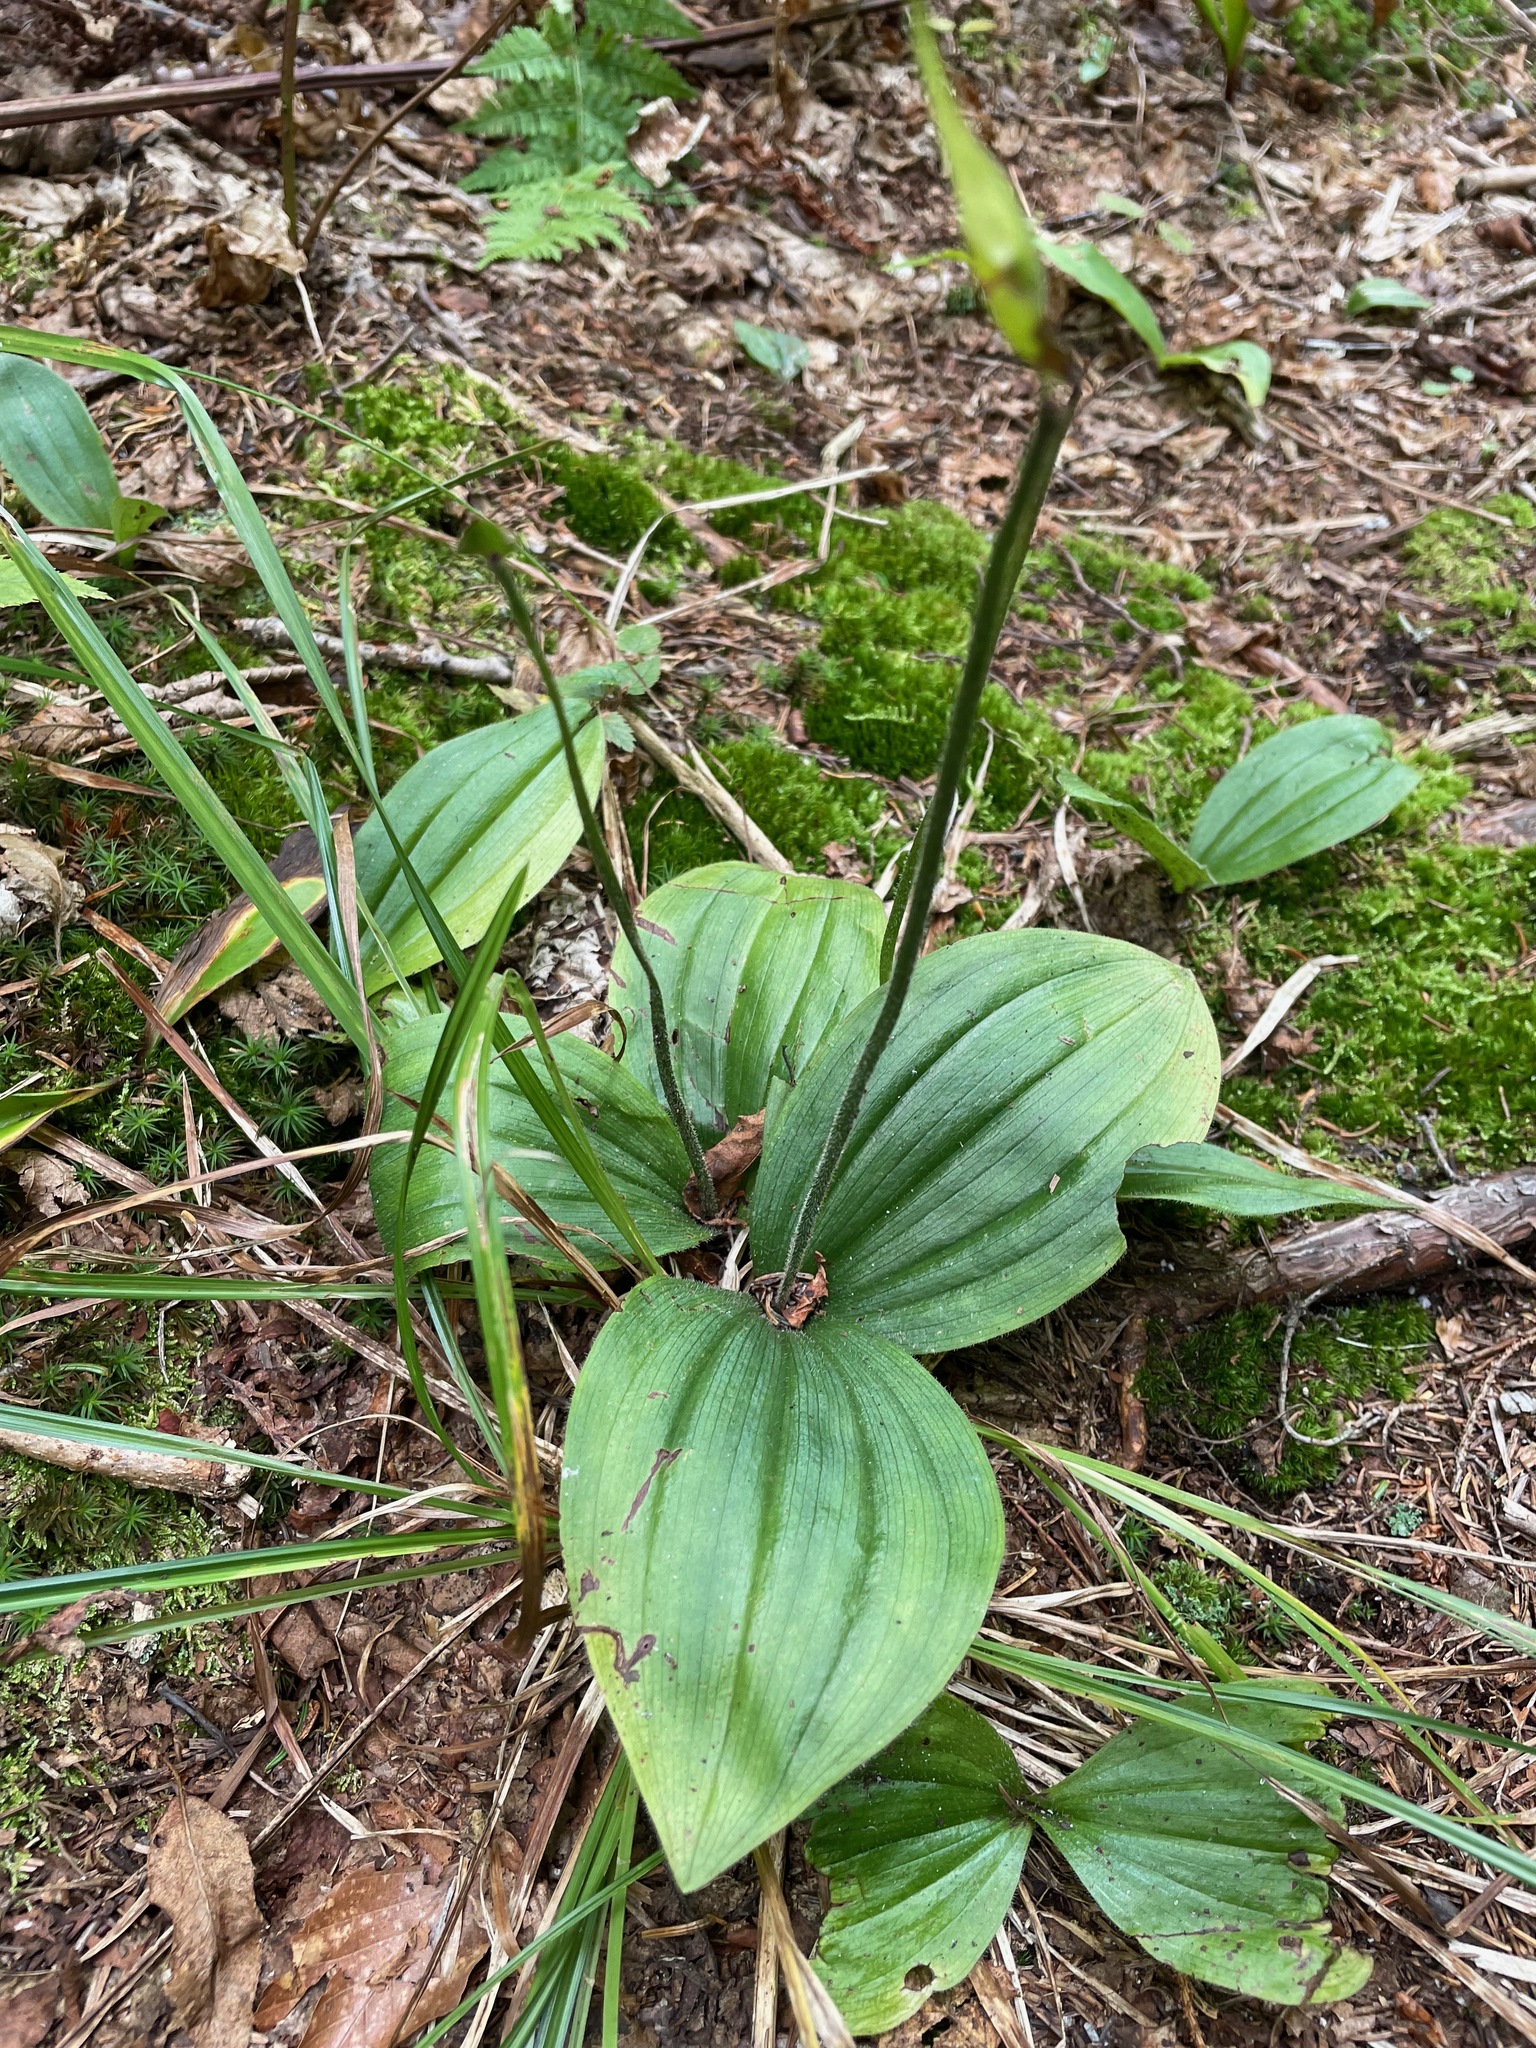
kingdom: Plantae
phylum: Tracheophyta
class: Liliopsida
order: Asparagales
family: Orchidaceae
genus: Cypripedium
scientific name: Cypripedium acaule
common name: Pink lady's-slipper
